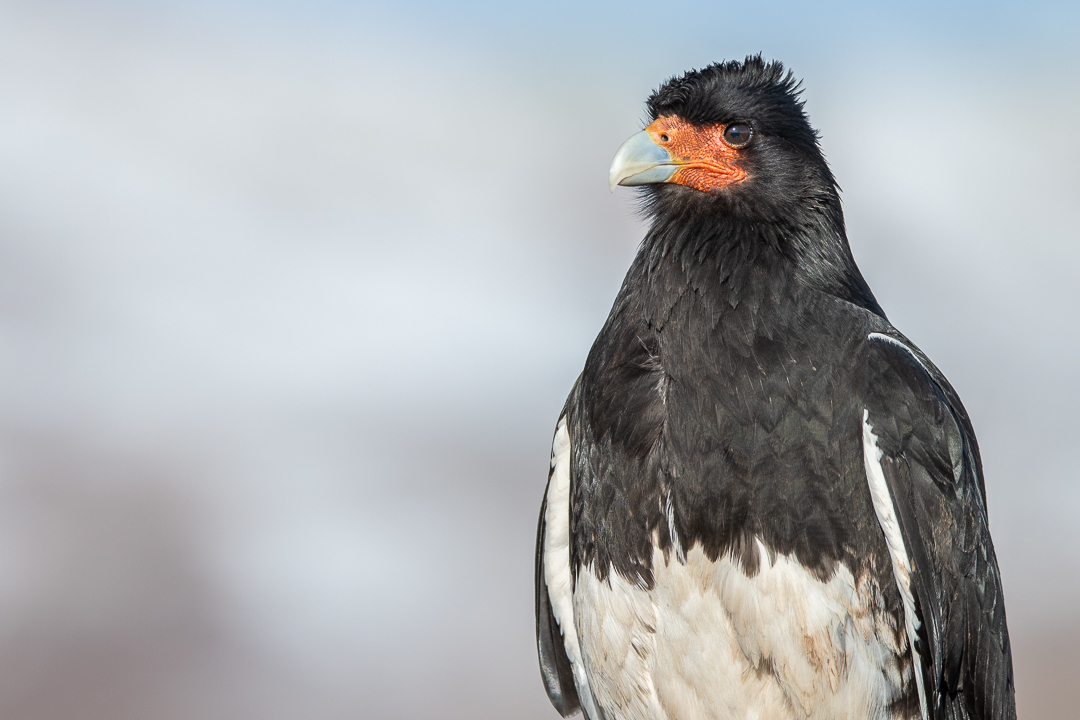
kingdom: Animalia
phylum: Chordata
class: Aves
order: Falconiformes
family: Falconidae
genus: Daptrius
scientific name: Daptrius
